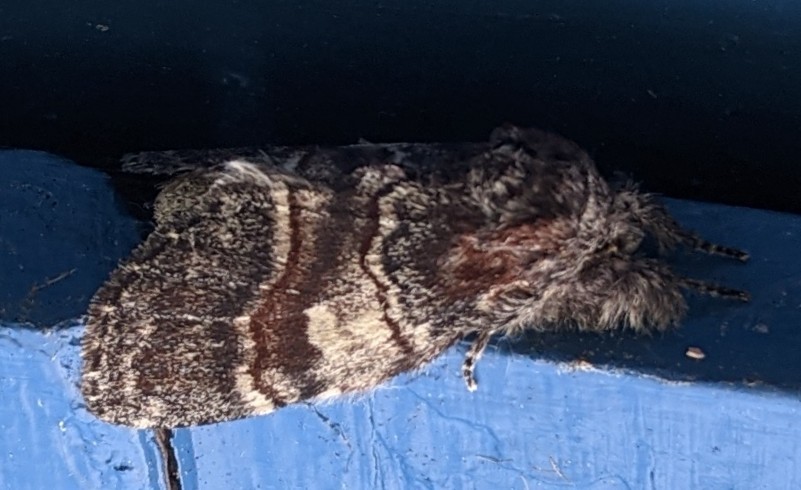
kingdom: Animalia
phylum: Arthropoda
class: Insecta
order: Lepidoptera
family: Notodontidae
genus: Peridea
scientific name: Peridea ferruginea
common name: Chocolate prominent
